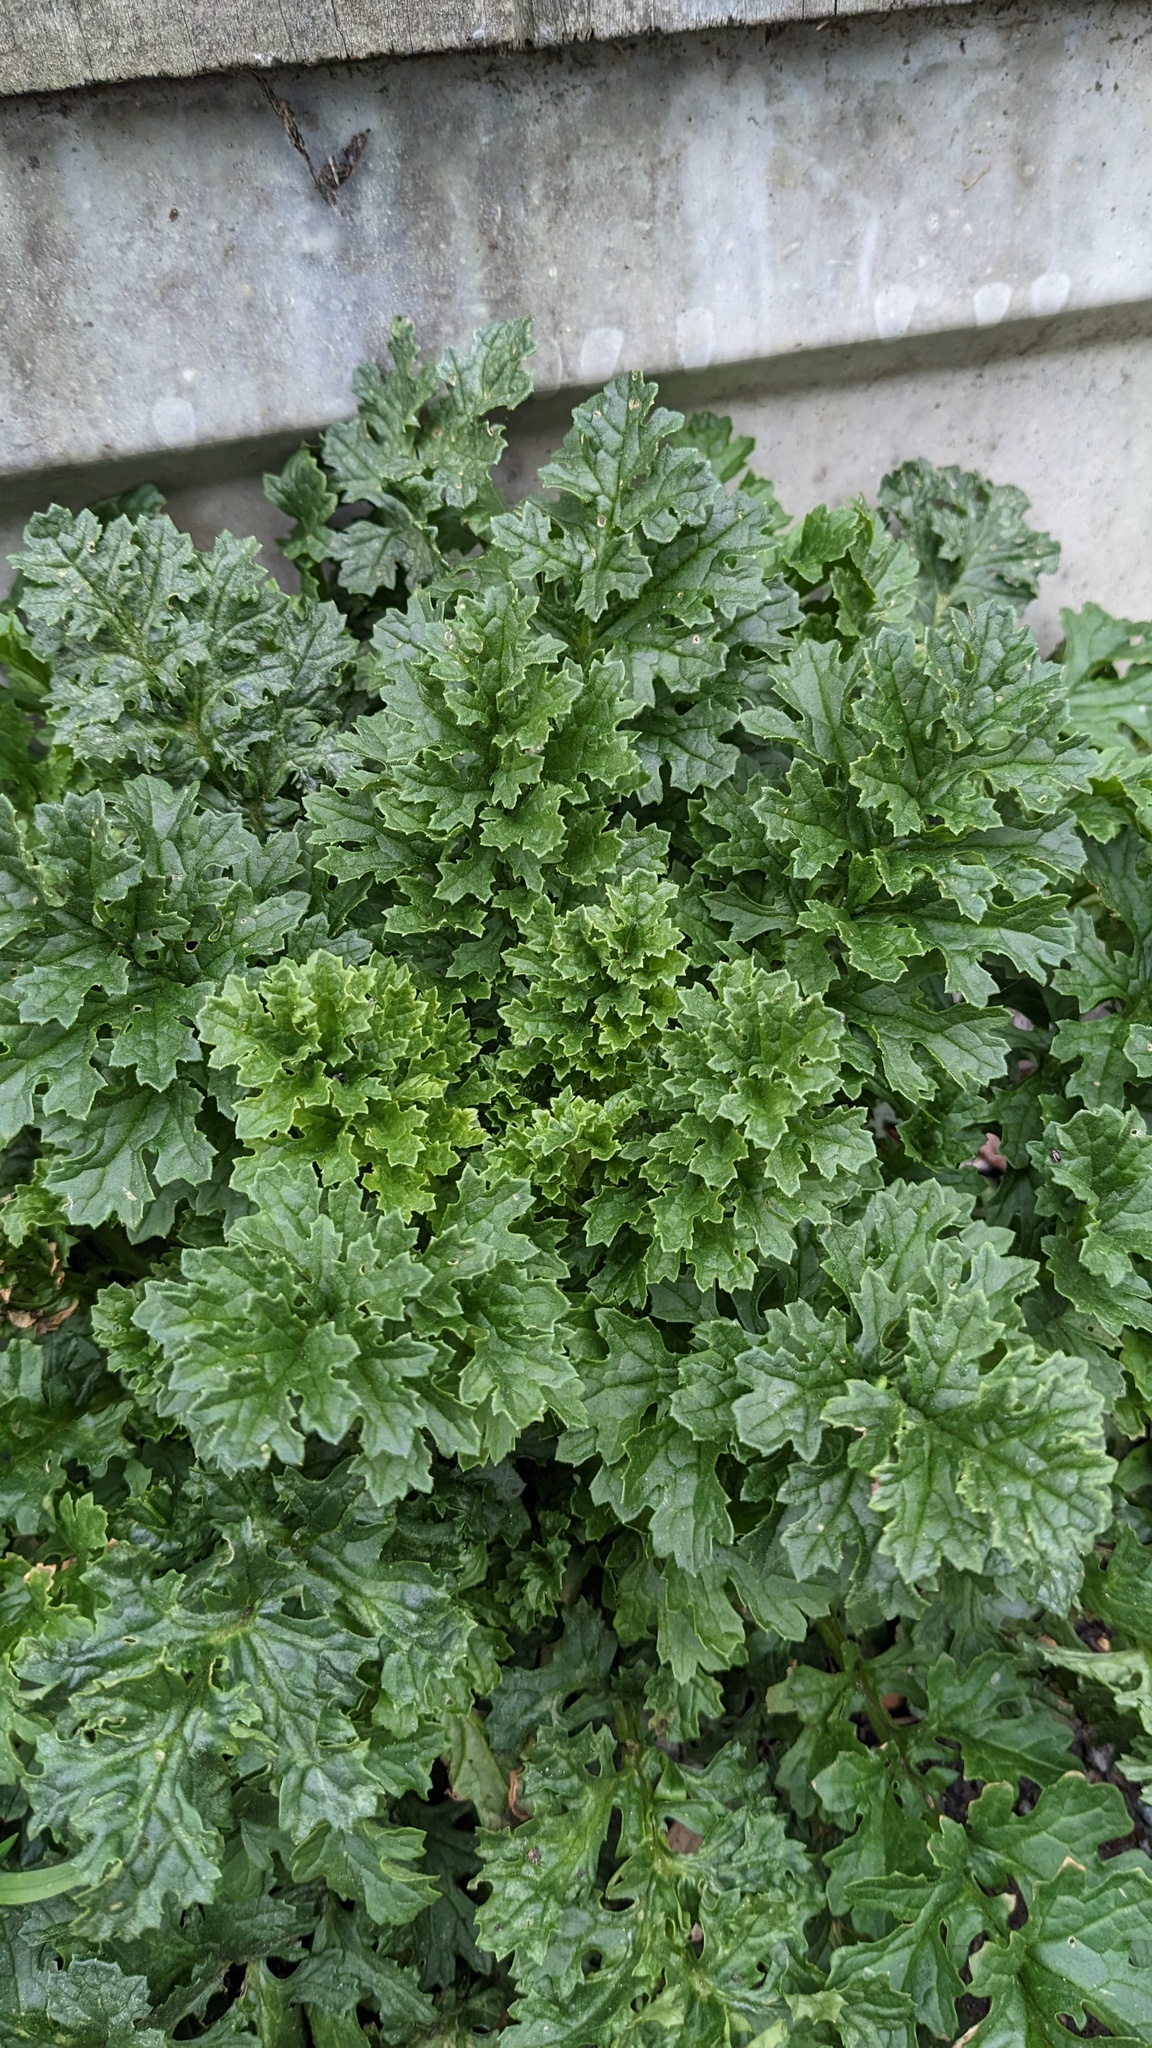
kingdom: Plantae
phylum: Tracheophyta
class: Magnoliopsida
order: Asterales
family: Asteraceae
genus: Jacobaea
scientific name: Jacobaea vulgaris
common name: Stinking willie
